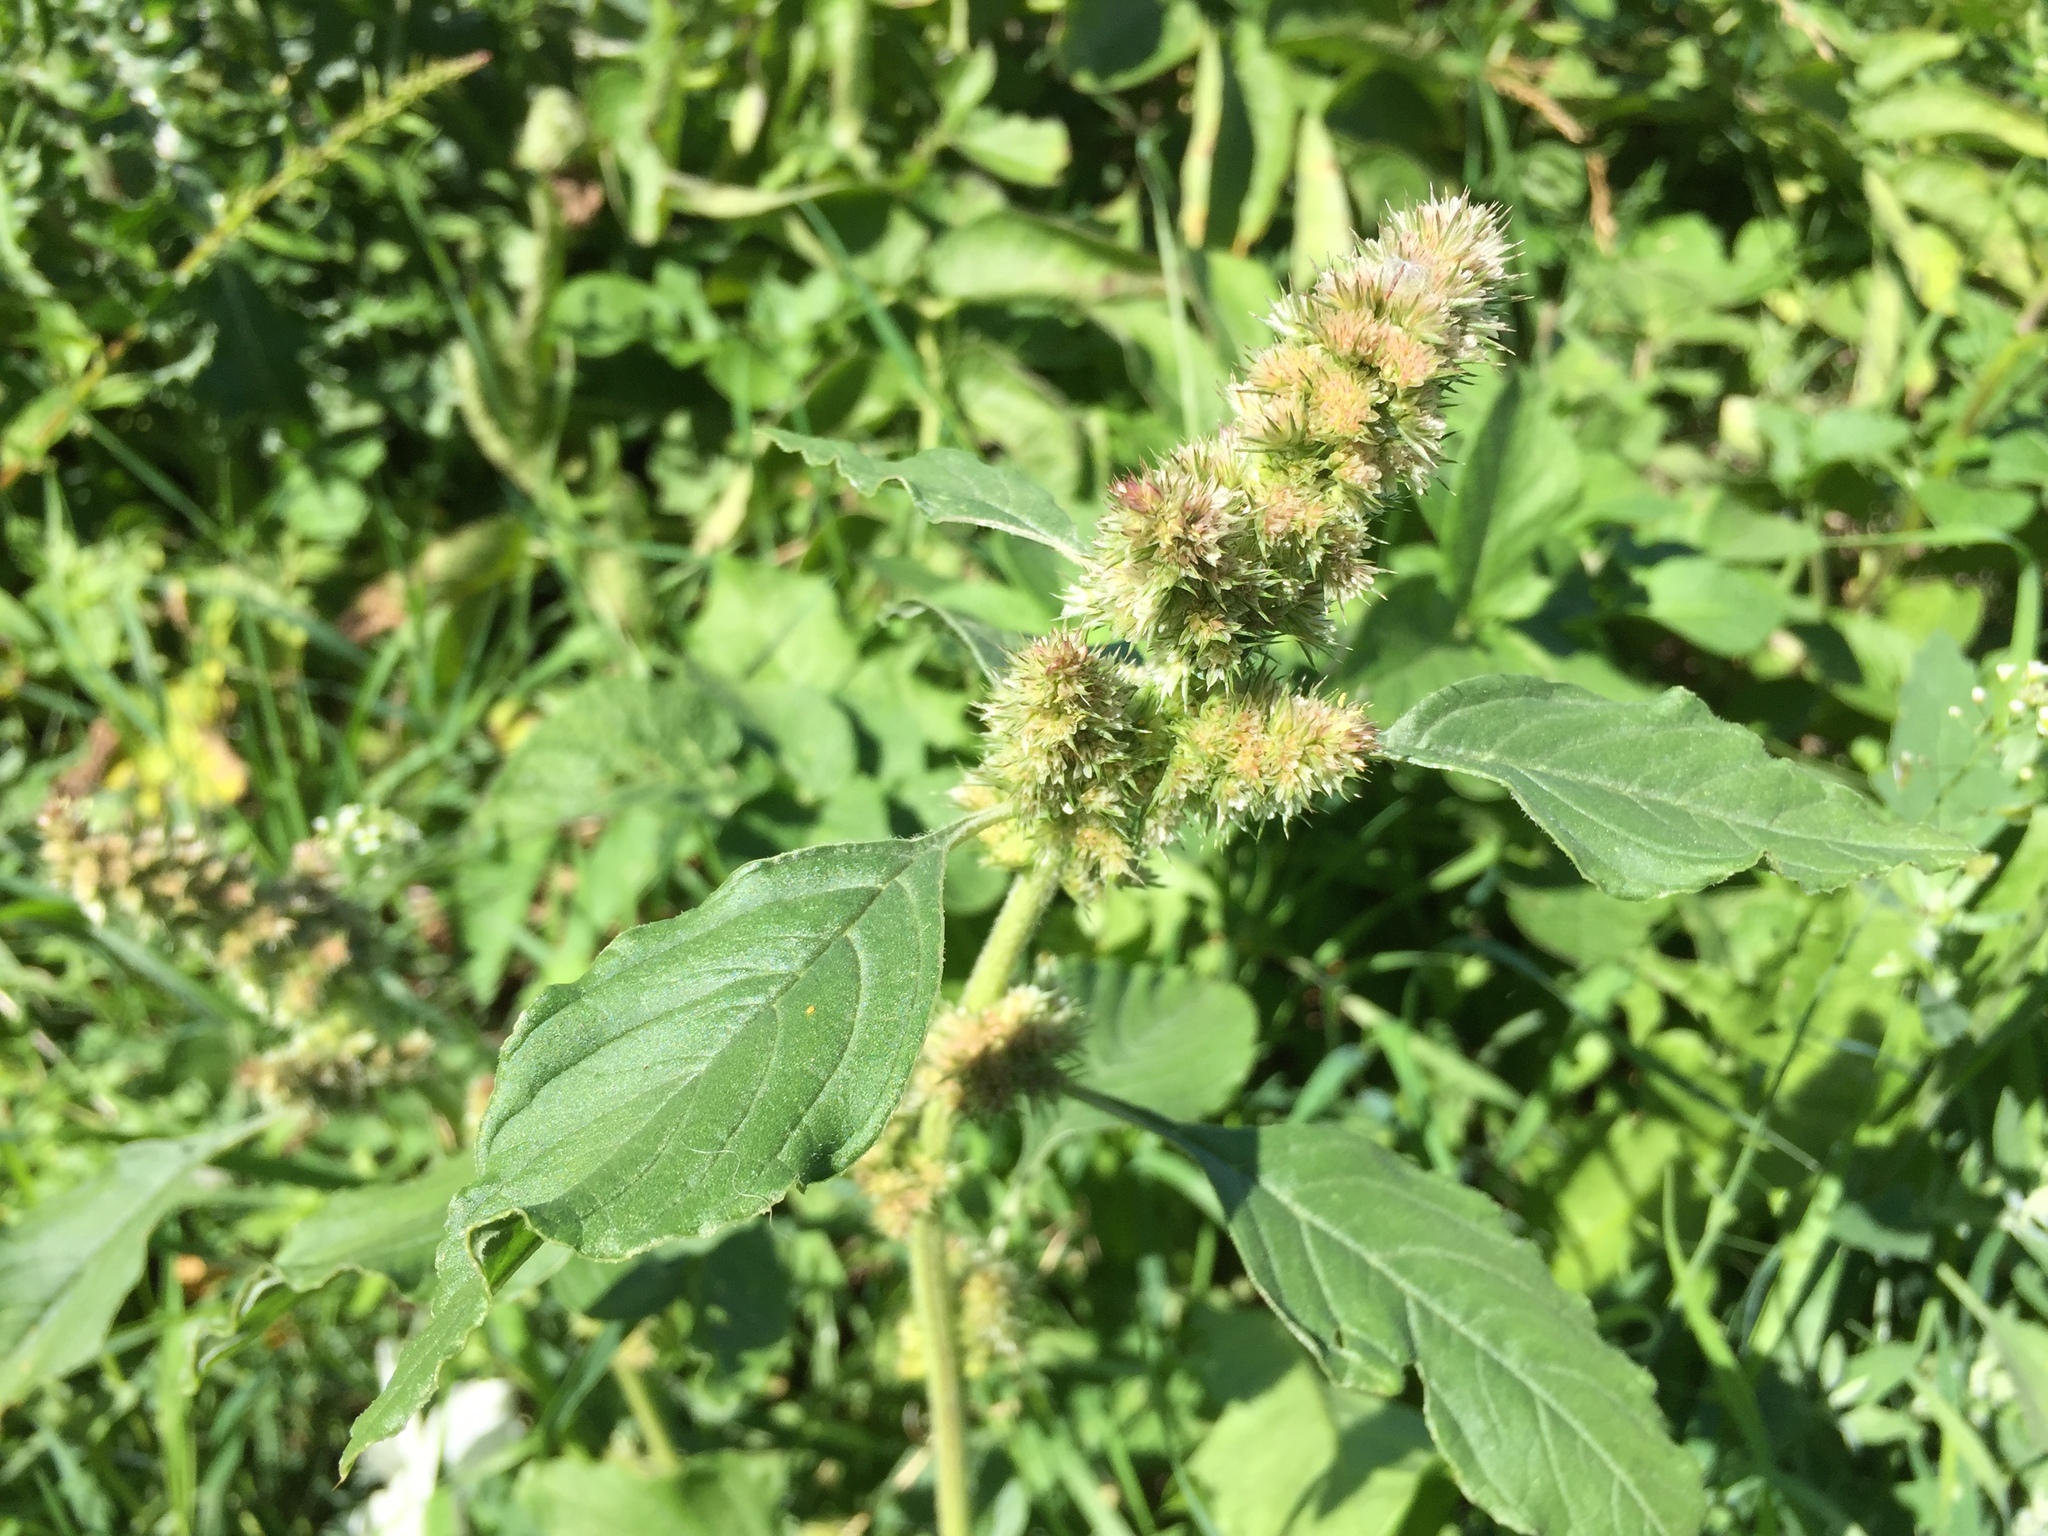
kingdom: Plantae
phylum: Tracheophyta
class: Magnoliopsida
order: Caryophyllales
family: Amaranthaceae
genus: Amaranthus
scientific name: Amaranthus retroflexus
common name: Redroot amaranth
